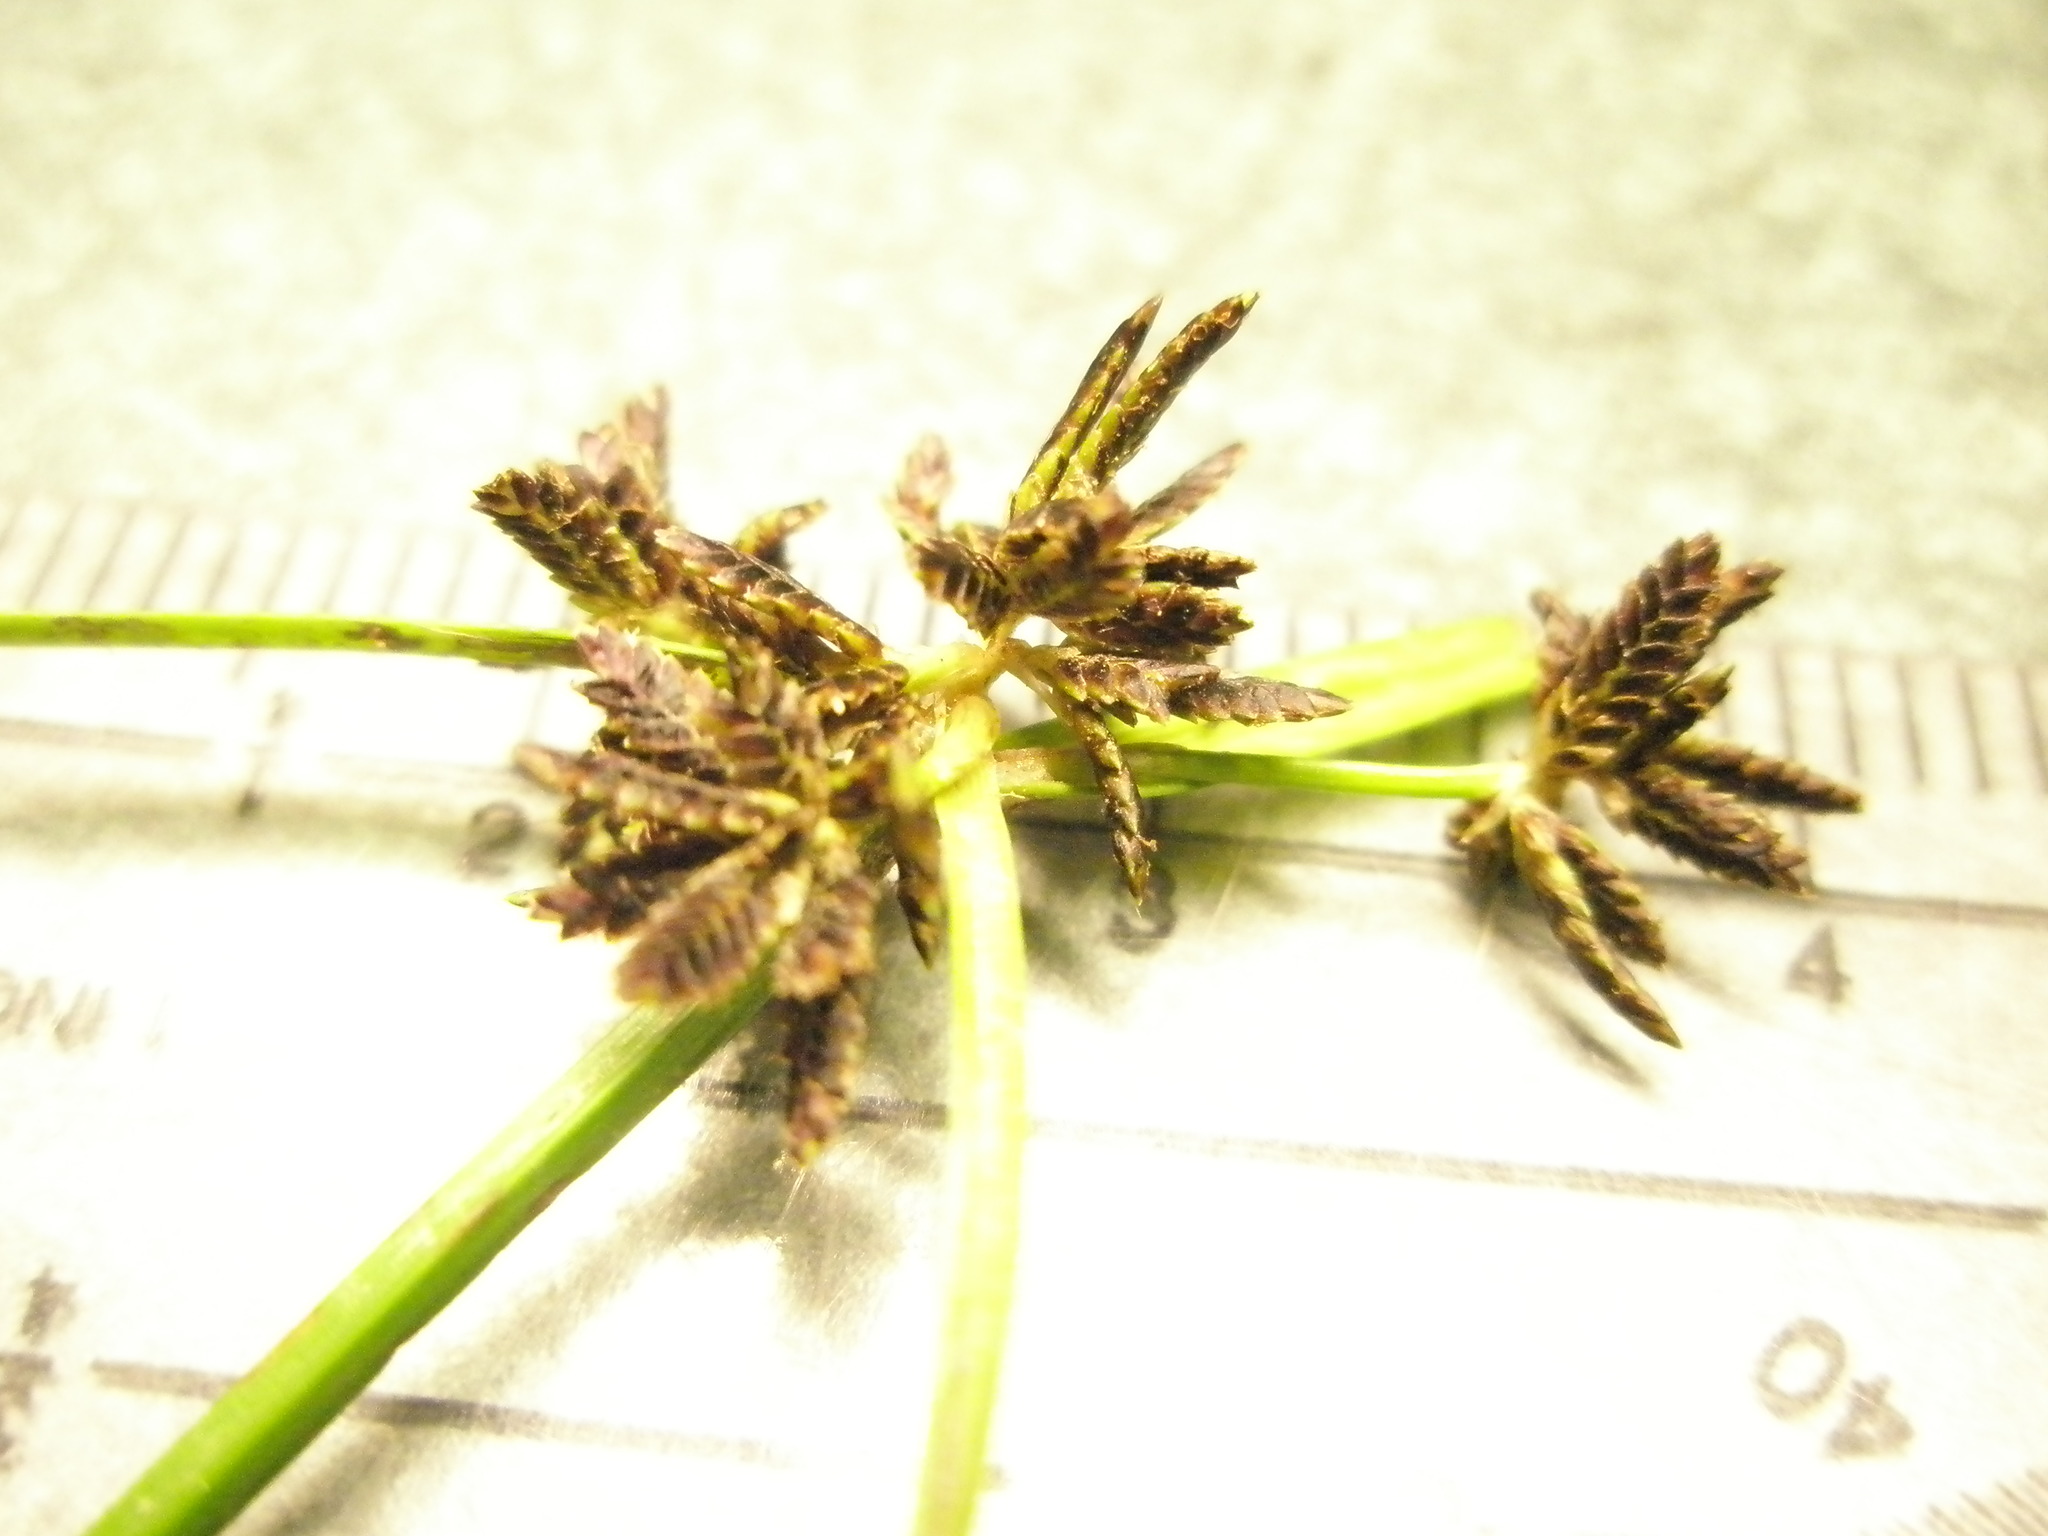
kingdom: Plantae
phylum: Tracheophyta
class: Liliopsida
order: Poales
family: Cyperaceae
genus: Cyperus
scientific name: Cyperus fuscus
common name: Brown galingale
